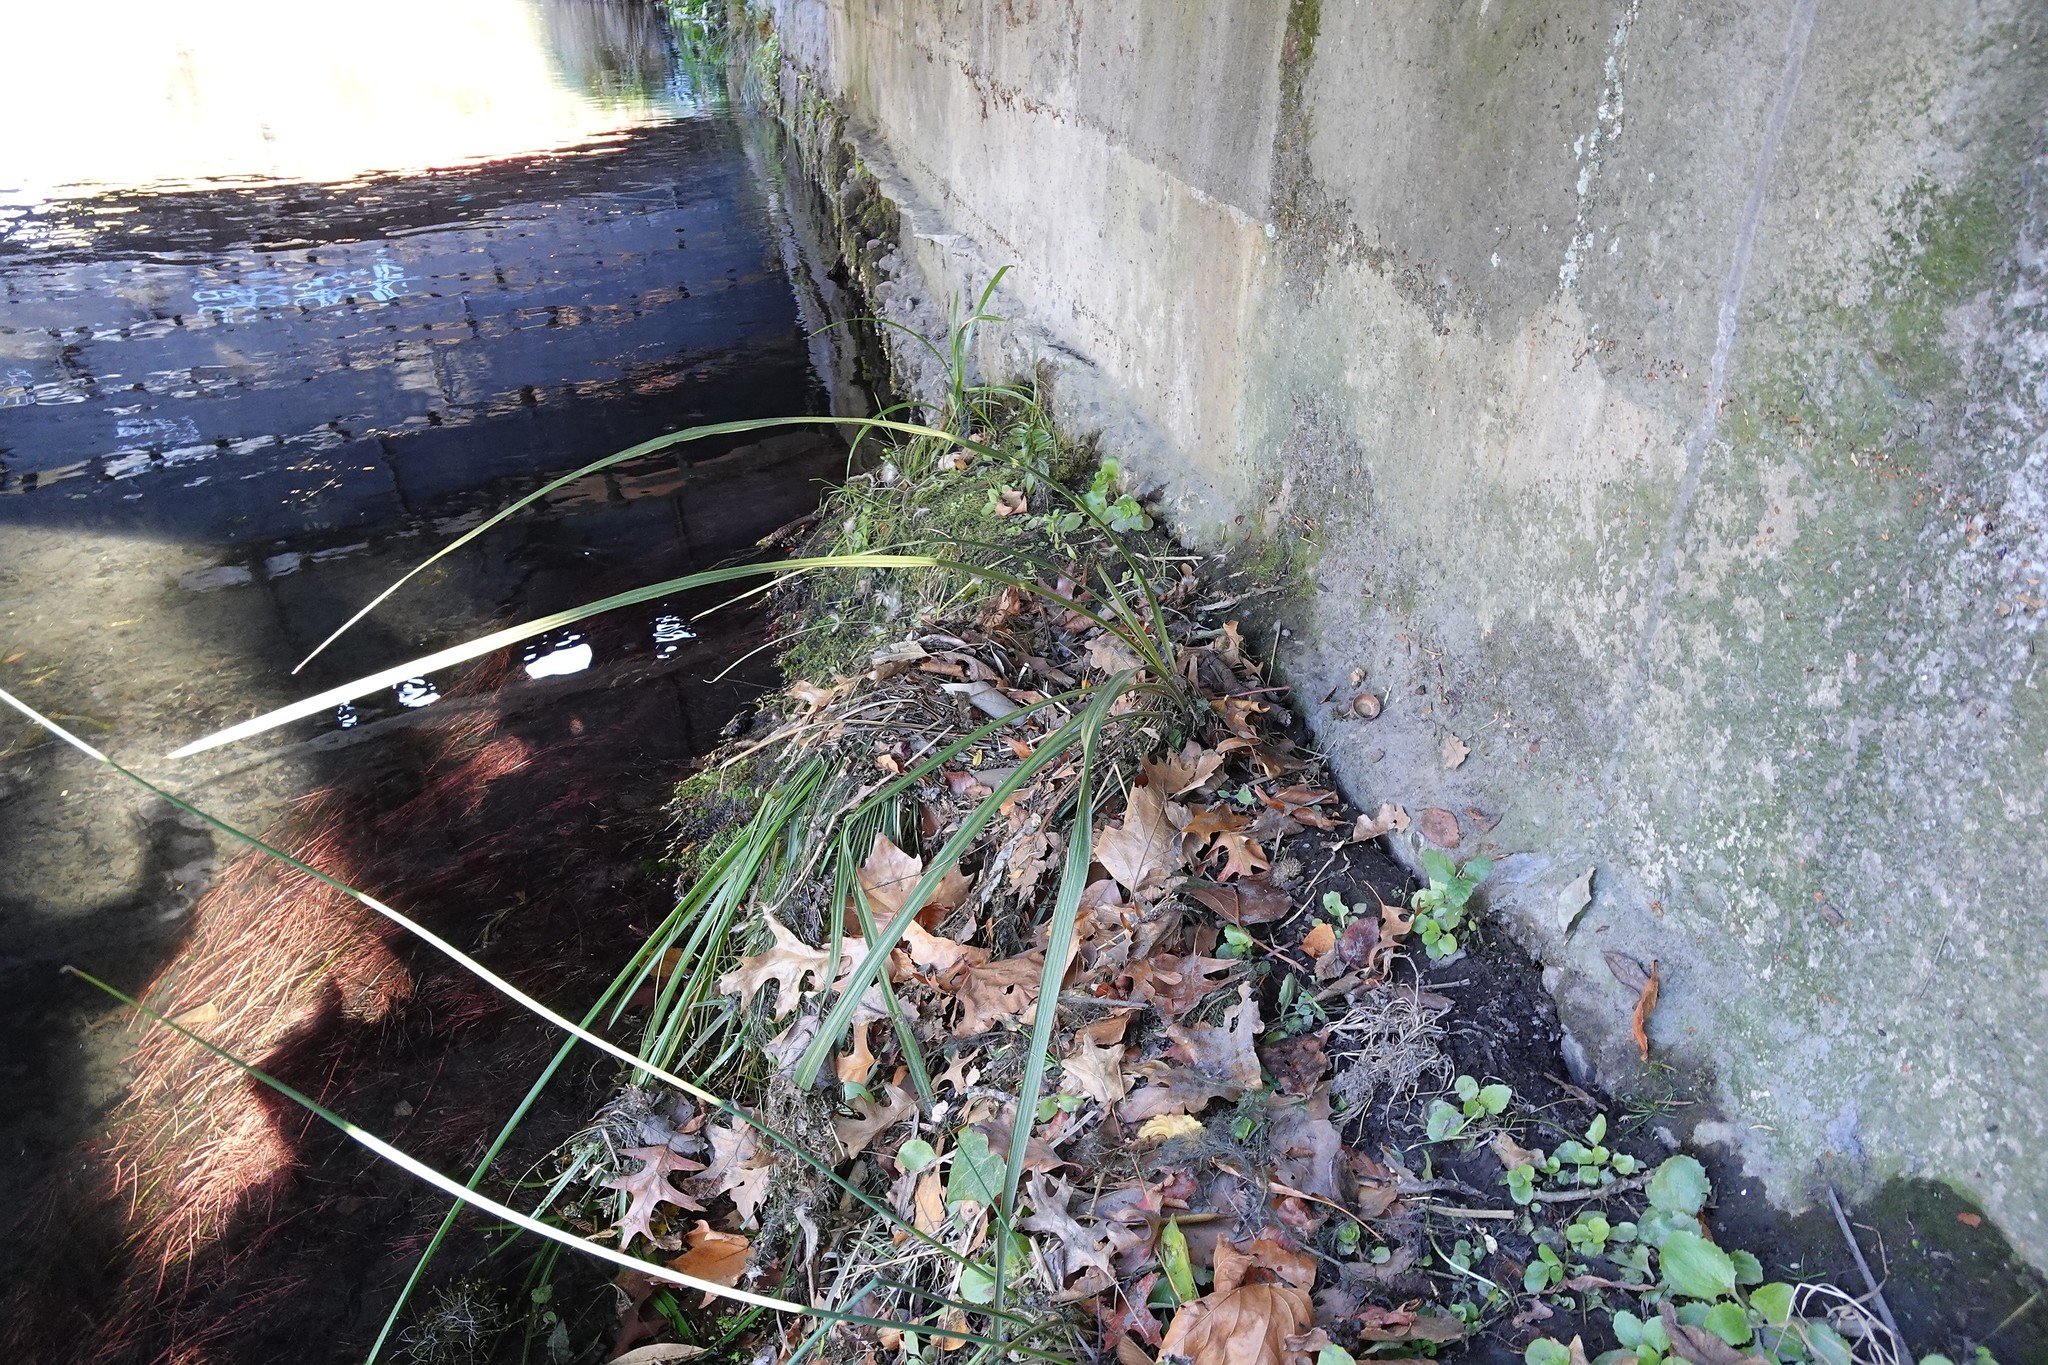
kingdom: Plantae
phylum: Tracheophyta
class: Liliopsida
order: Asparagales
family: Asparagaceae
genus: Cordyline
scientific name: Cordyline australis
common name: Cabbage-palm
